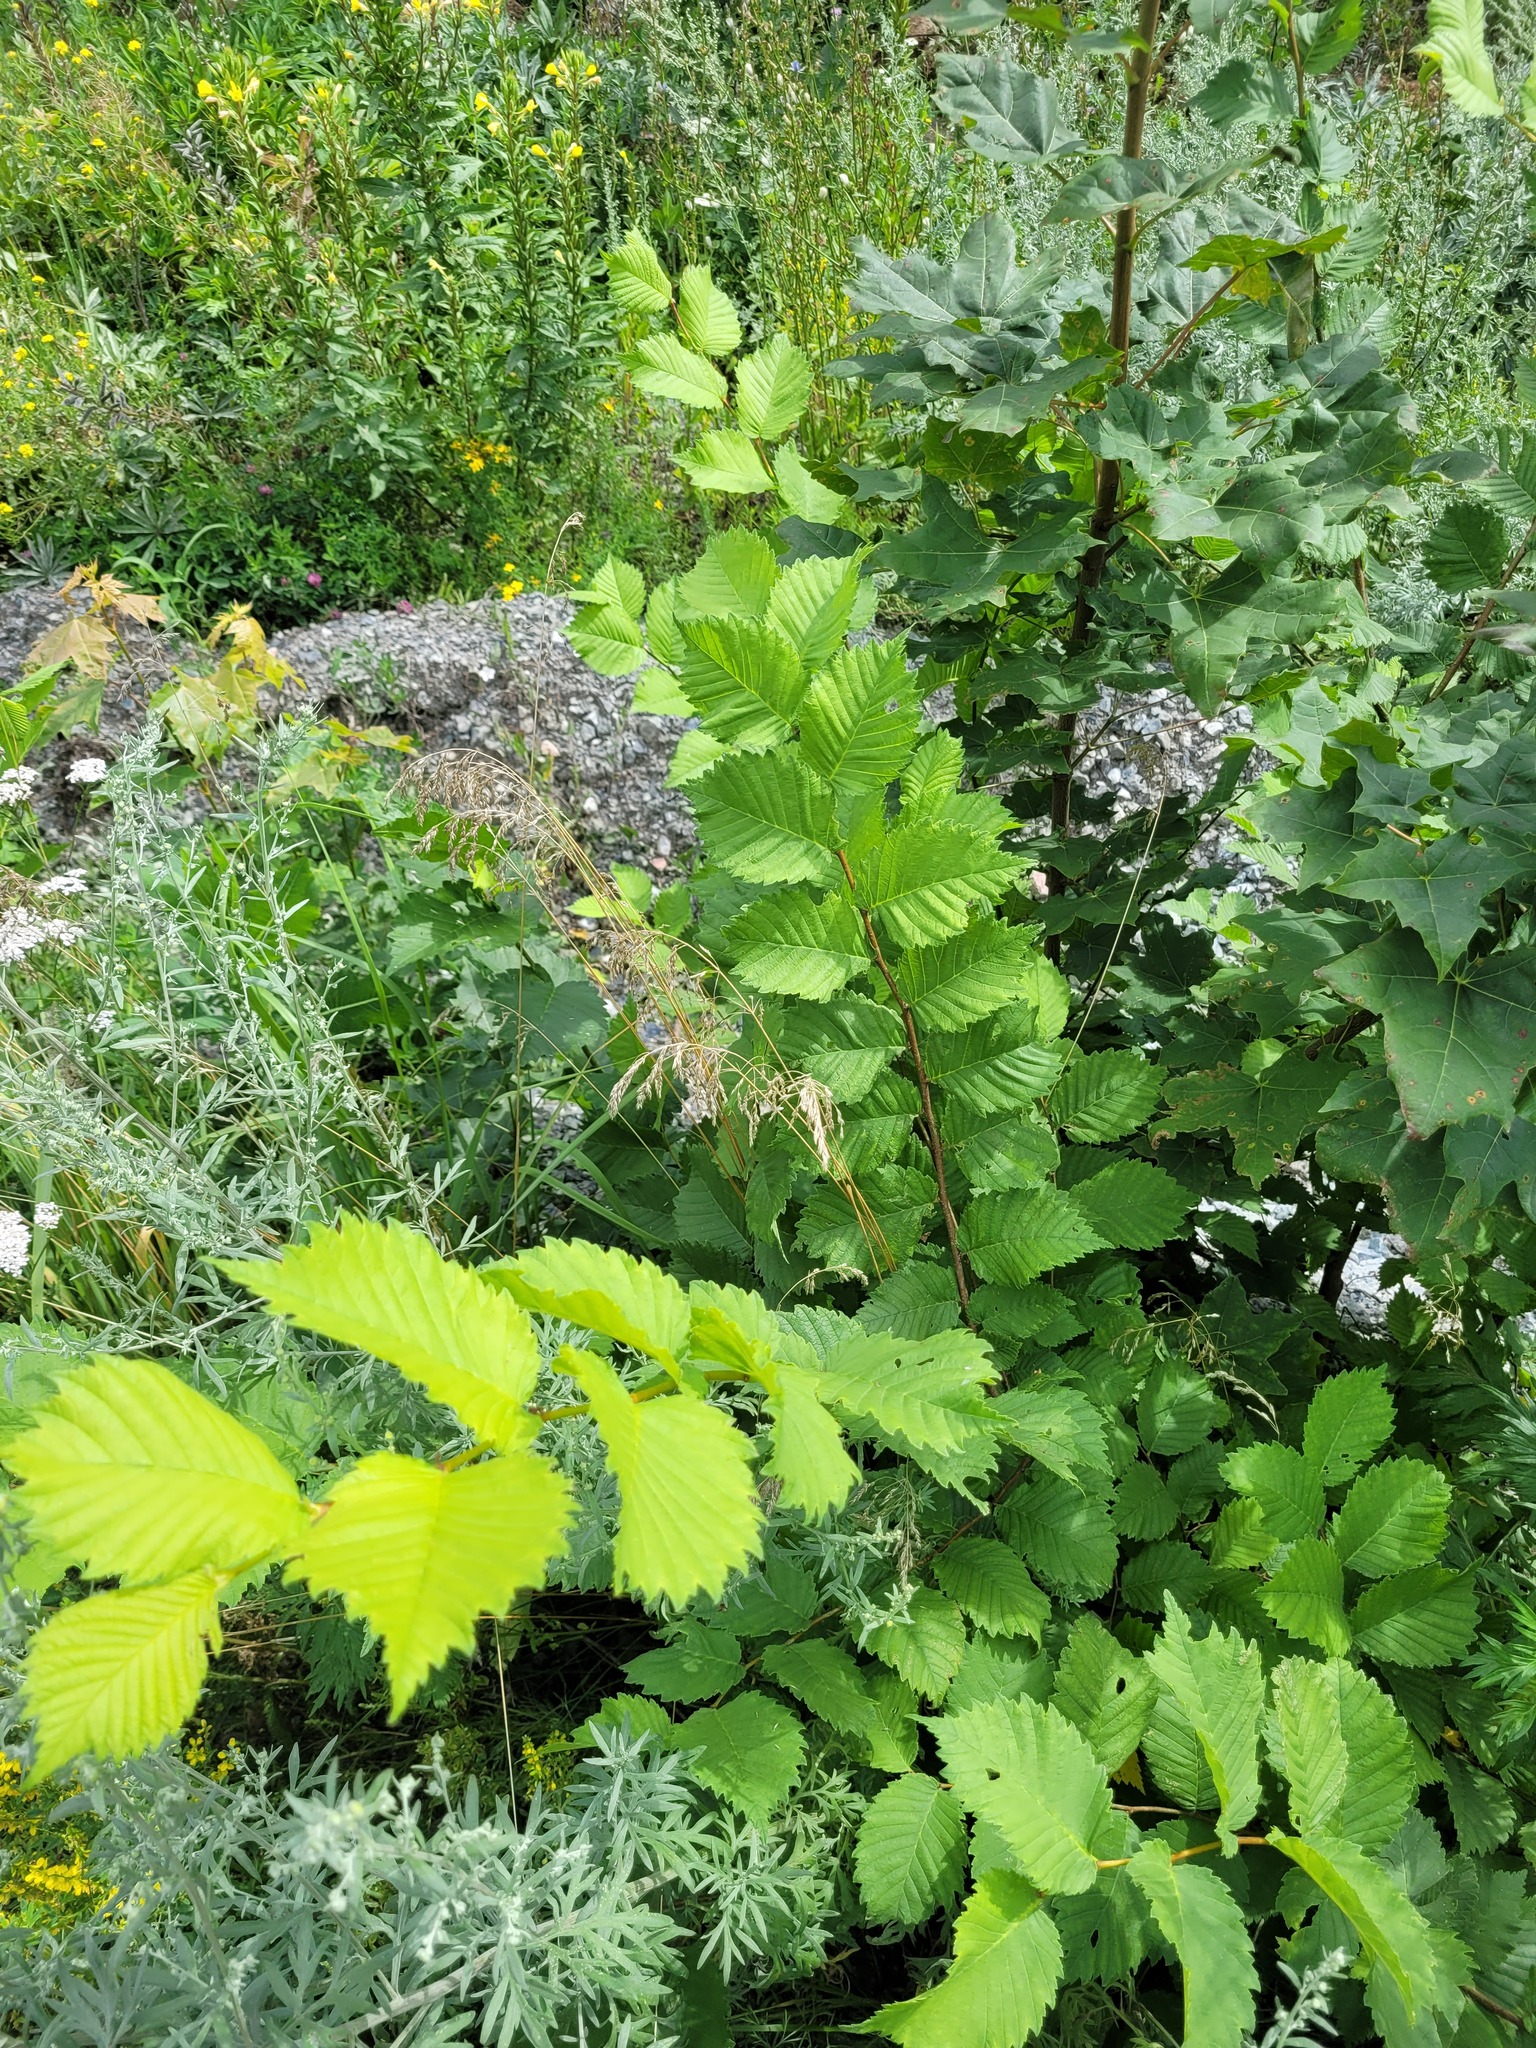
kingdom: Plantae
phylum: Tracheophyta
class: Magnoliopsida
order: Rosales
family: Ulmaceae
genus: Ulmus
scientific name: Ulmus laevis
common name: European white-elm
